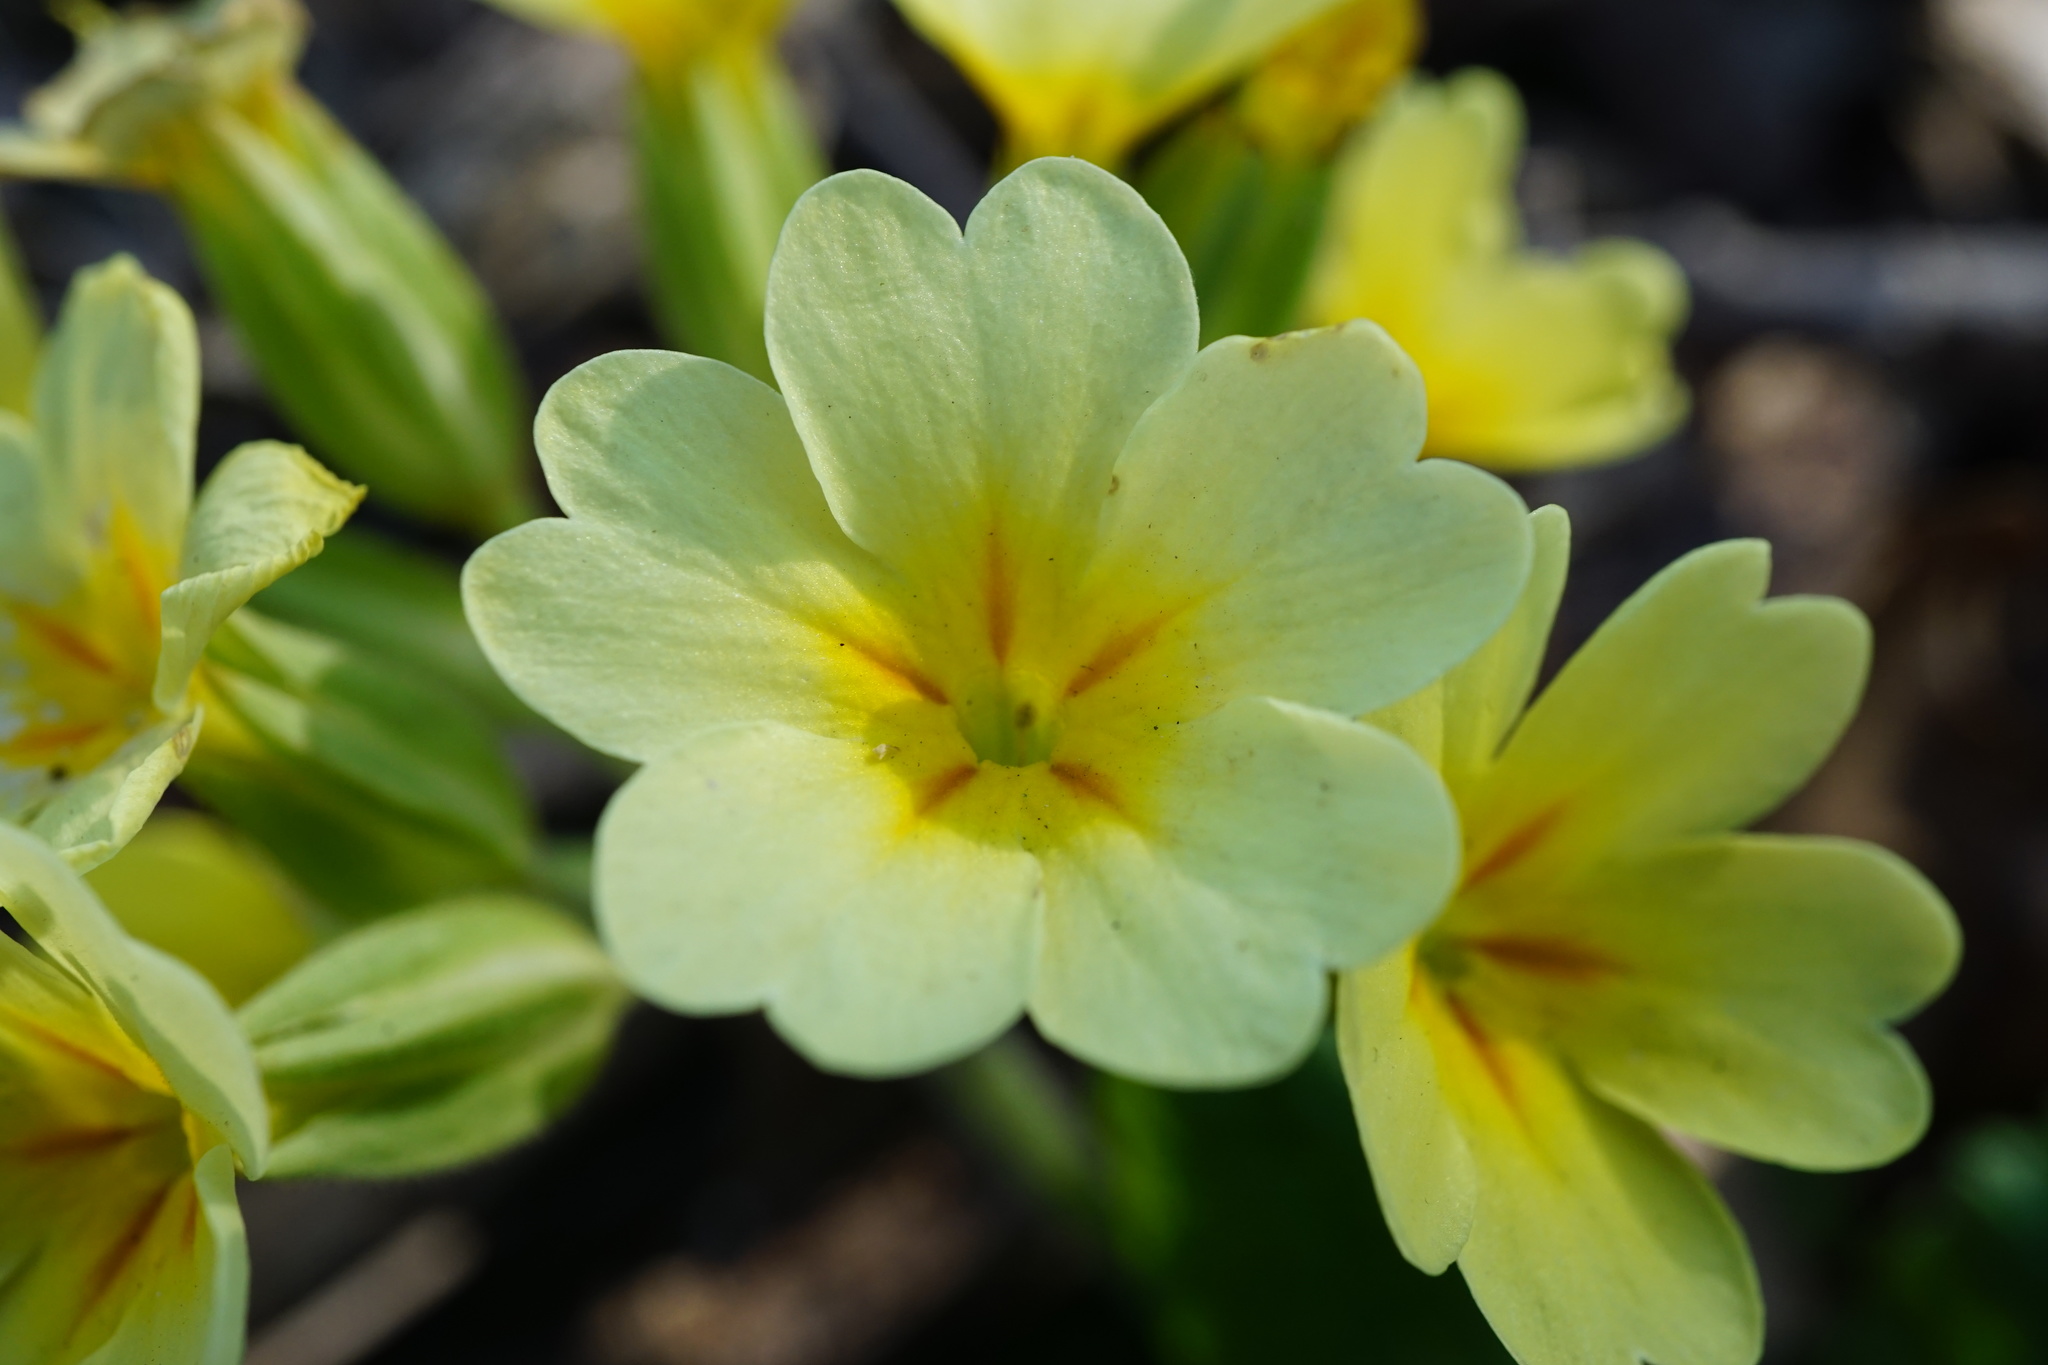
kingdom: Plantae
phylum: Tracheophyta
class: Magnoliopsida
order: Ericales
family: Primulaceae
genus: Primula
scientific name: Primula polyantha
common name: False oxlip
